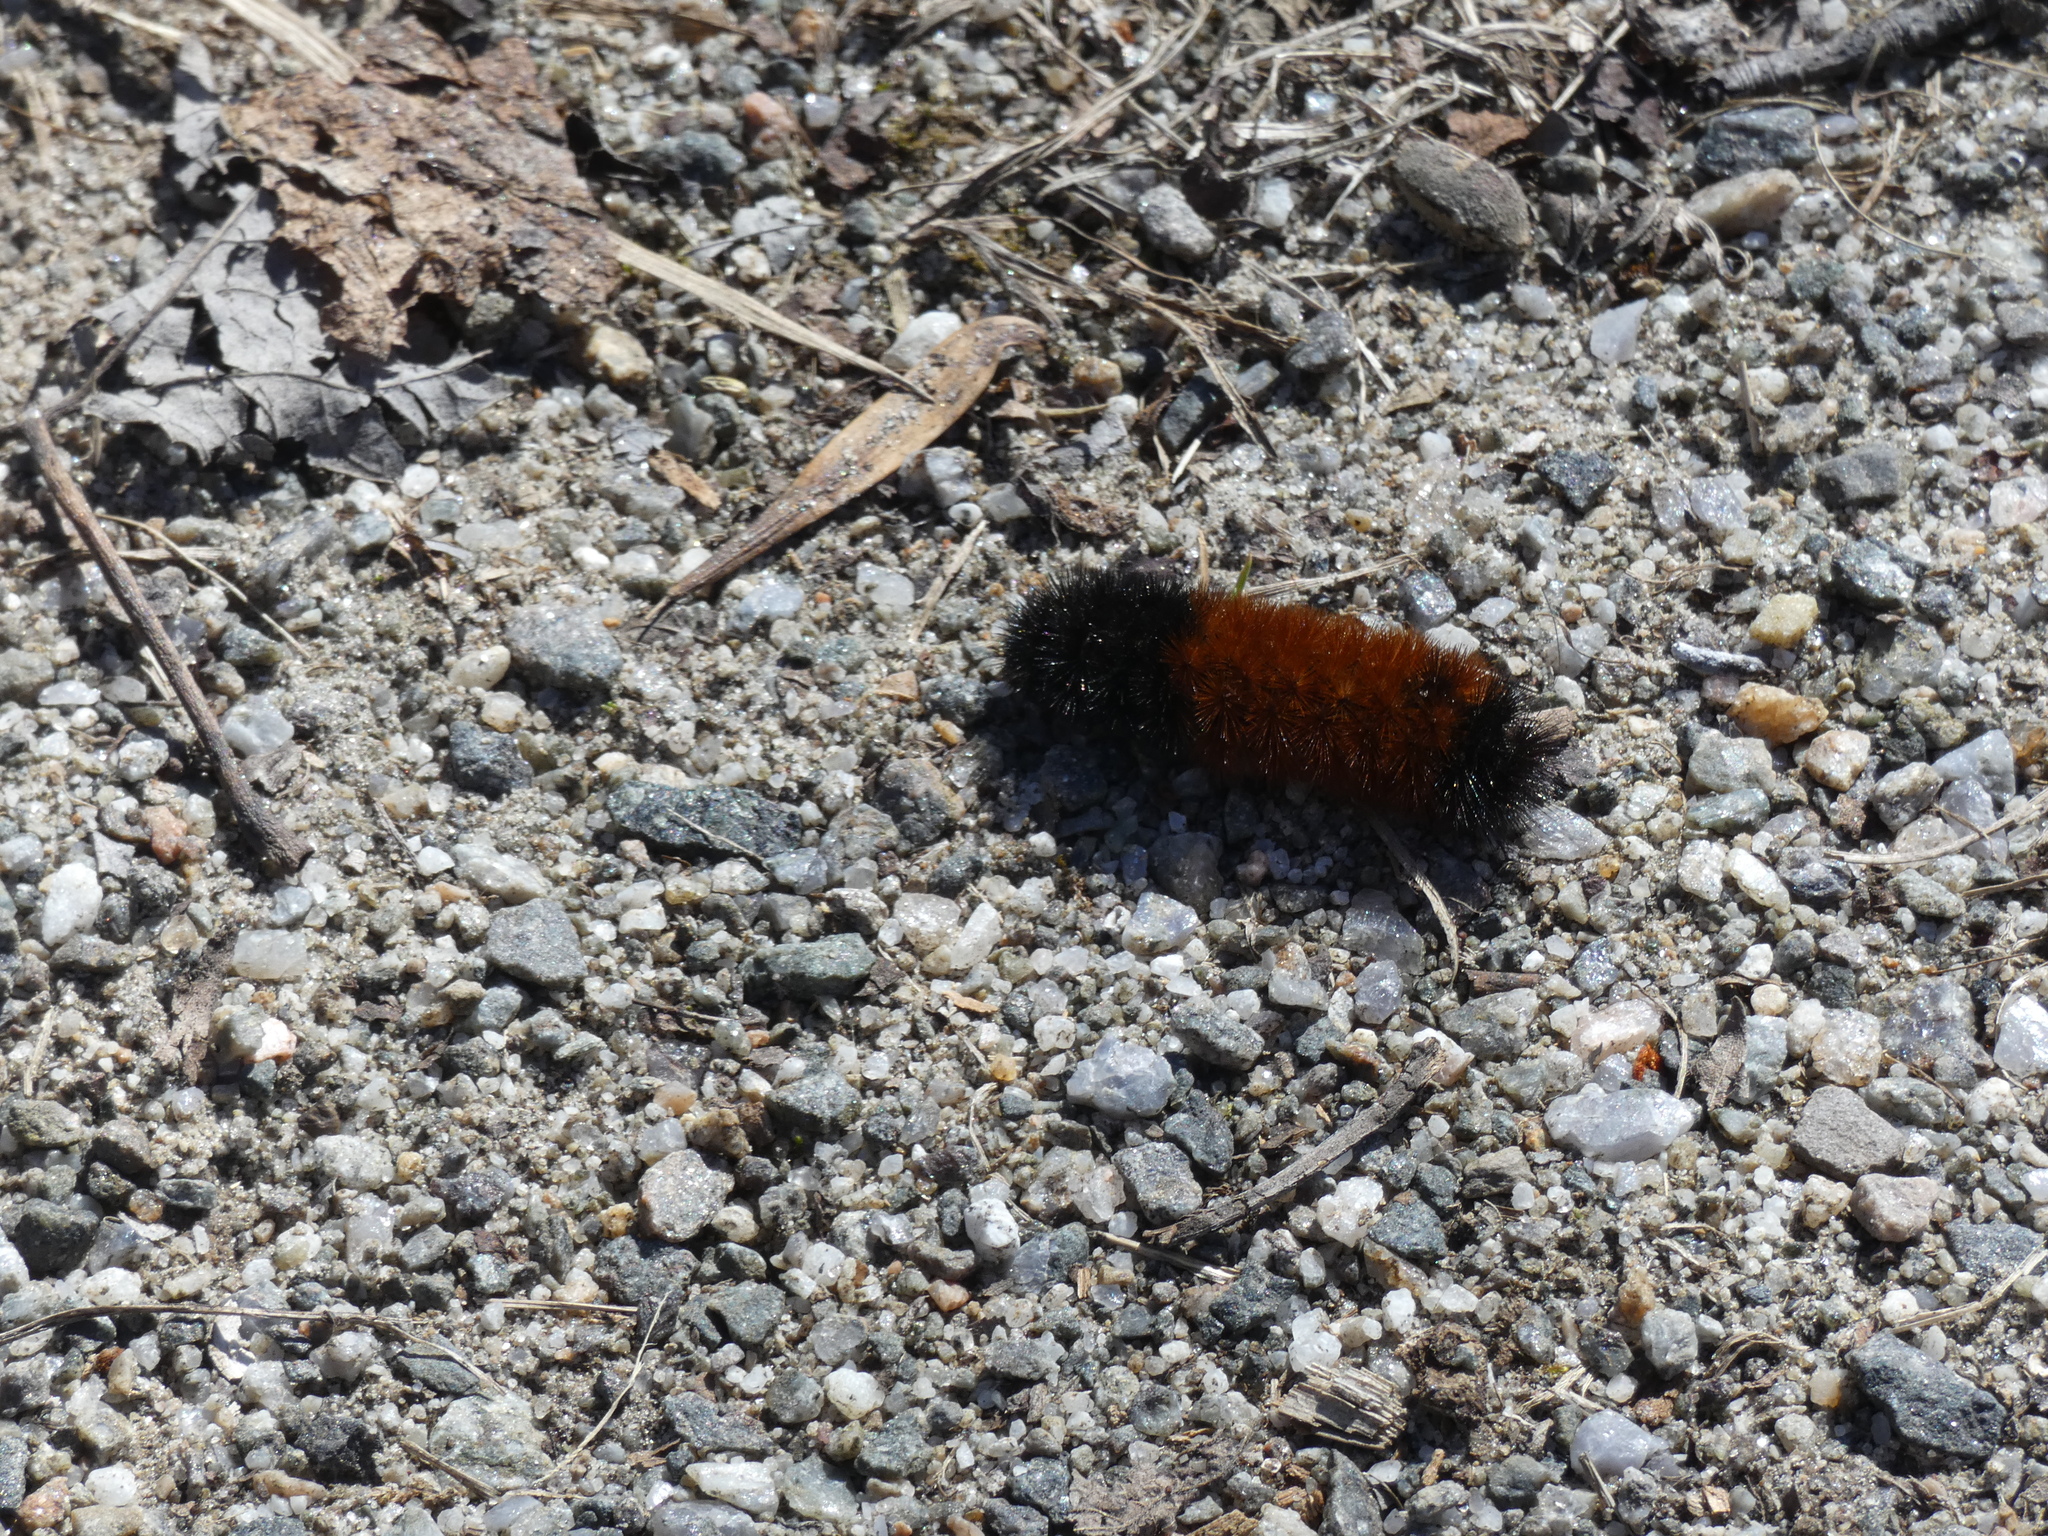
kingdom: Animalia
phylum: Arthropoda
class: Insecta
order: Lepidoptera
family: Erebidae
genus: Pyrrharctia
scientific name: Pyrrharctia isabella
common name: Isabella tiger moth
